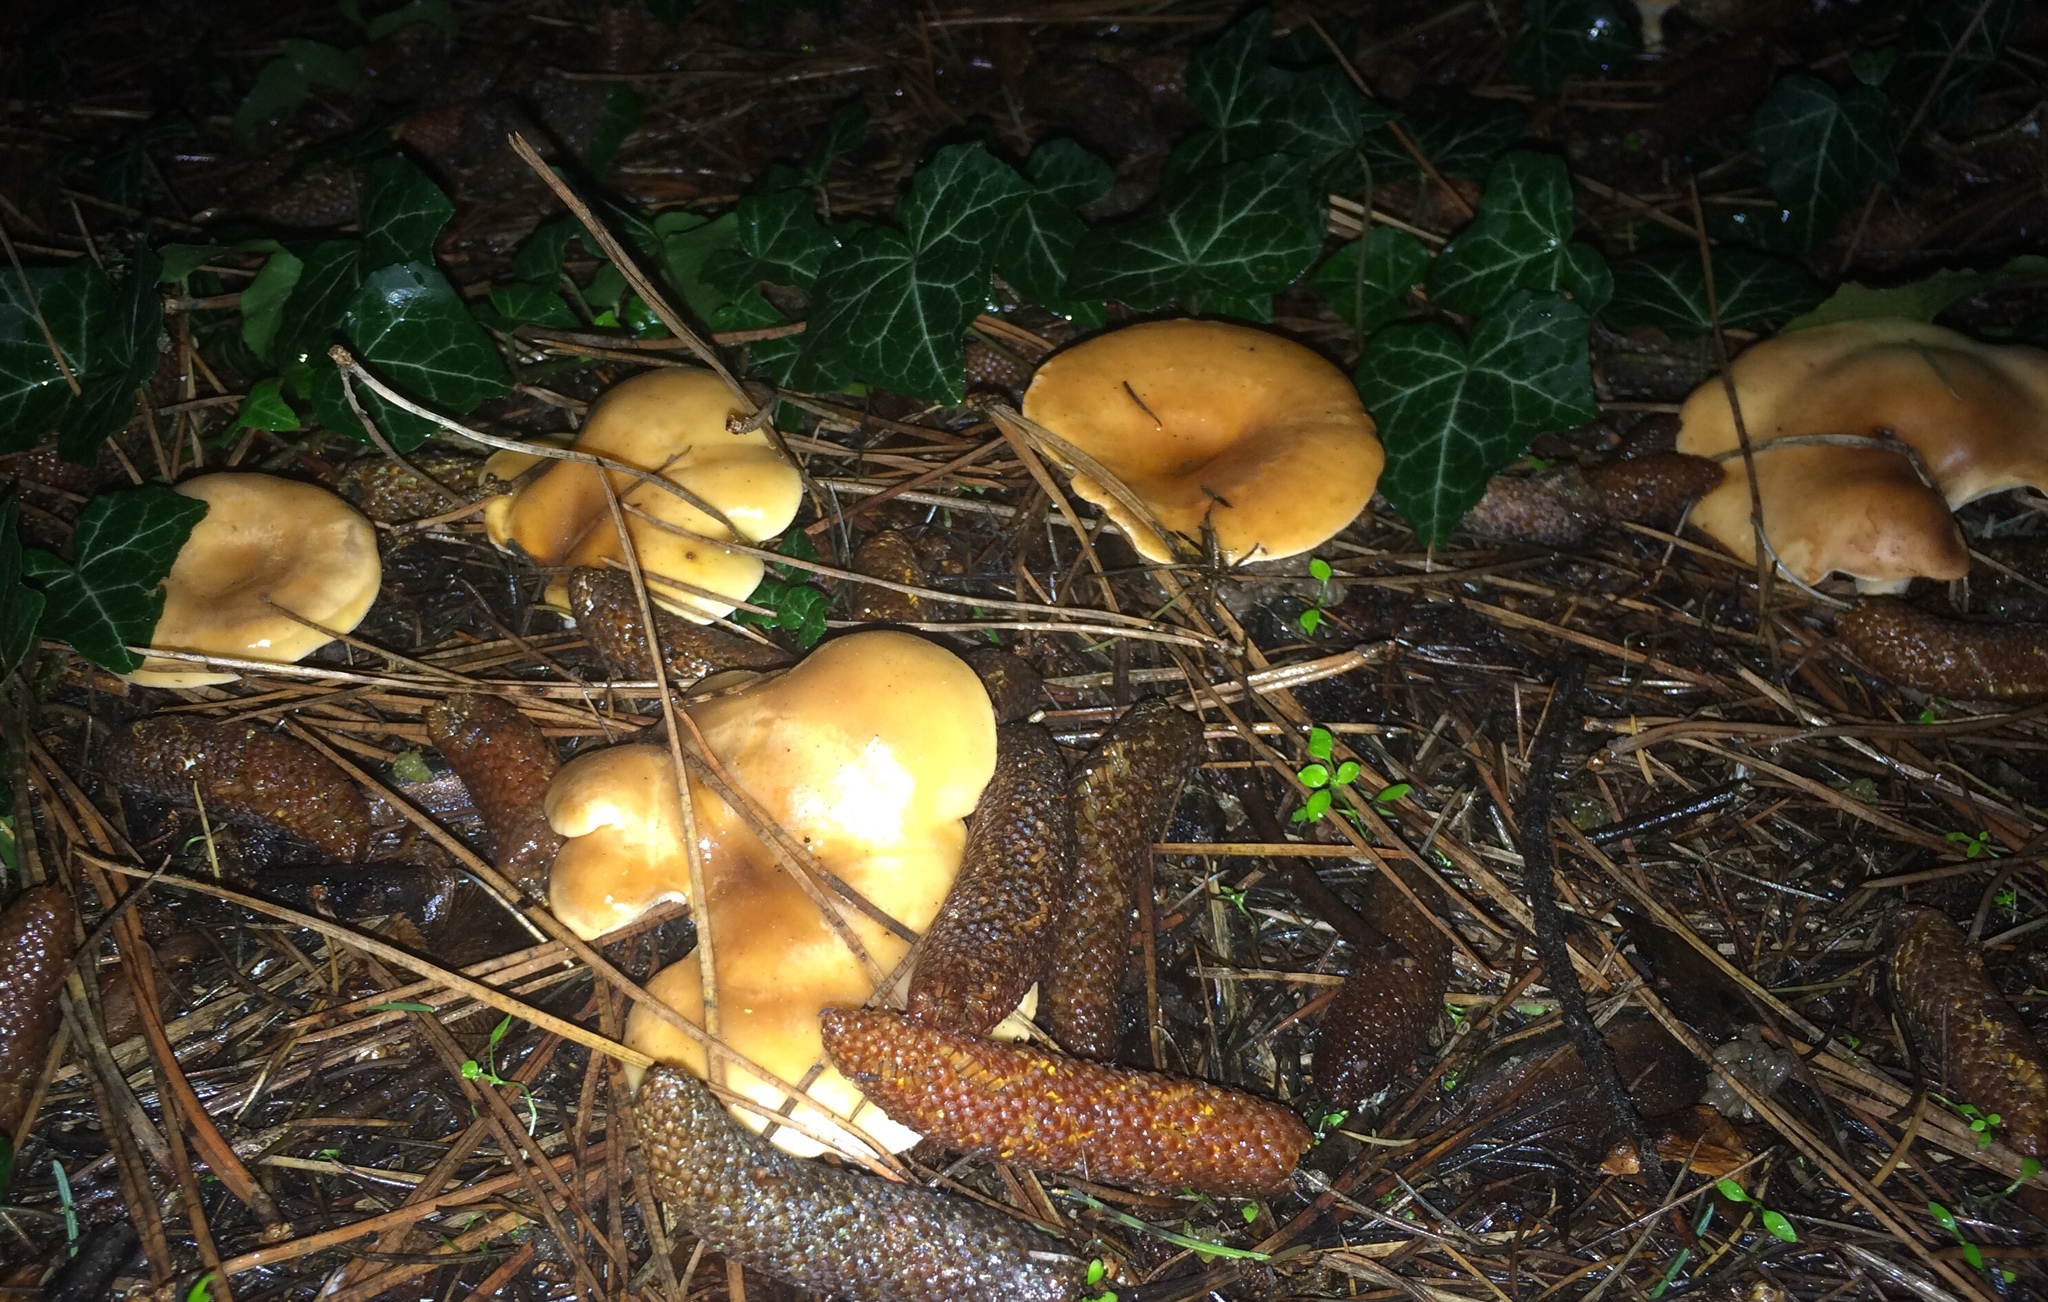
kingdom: Fungi
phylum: Basidiomycota
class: Agaricomycetes
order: Agaricales
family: Tricholomataceae
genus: Paralepista
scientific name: Paralepista flaccida
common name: Tawny funnel cap
